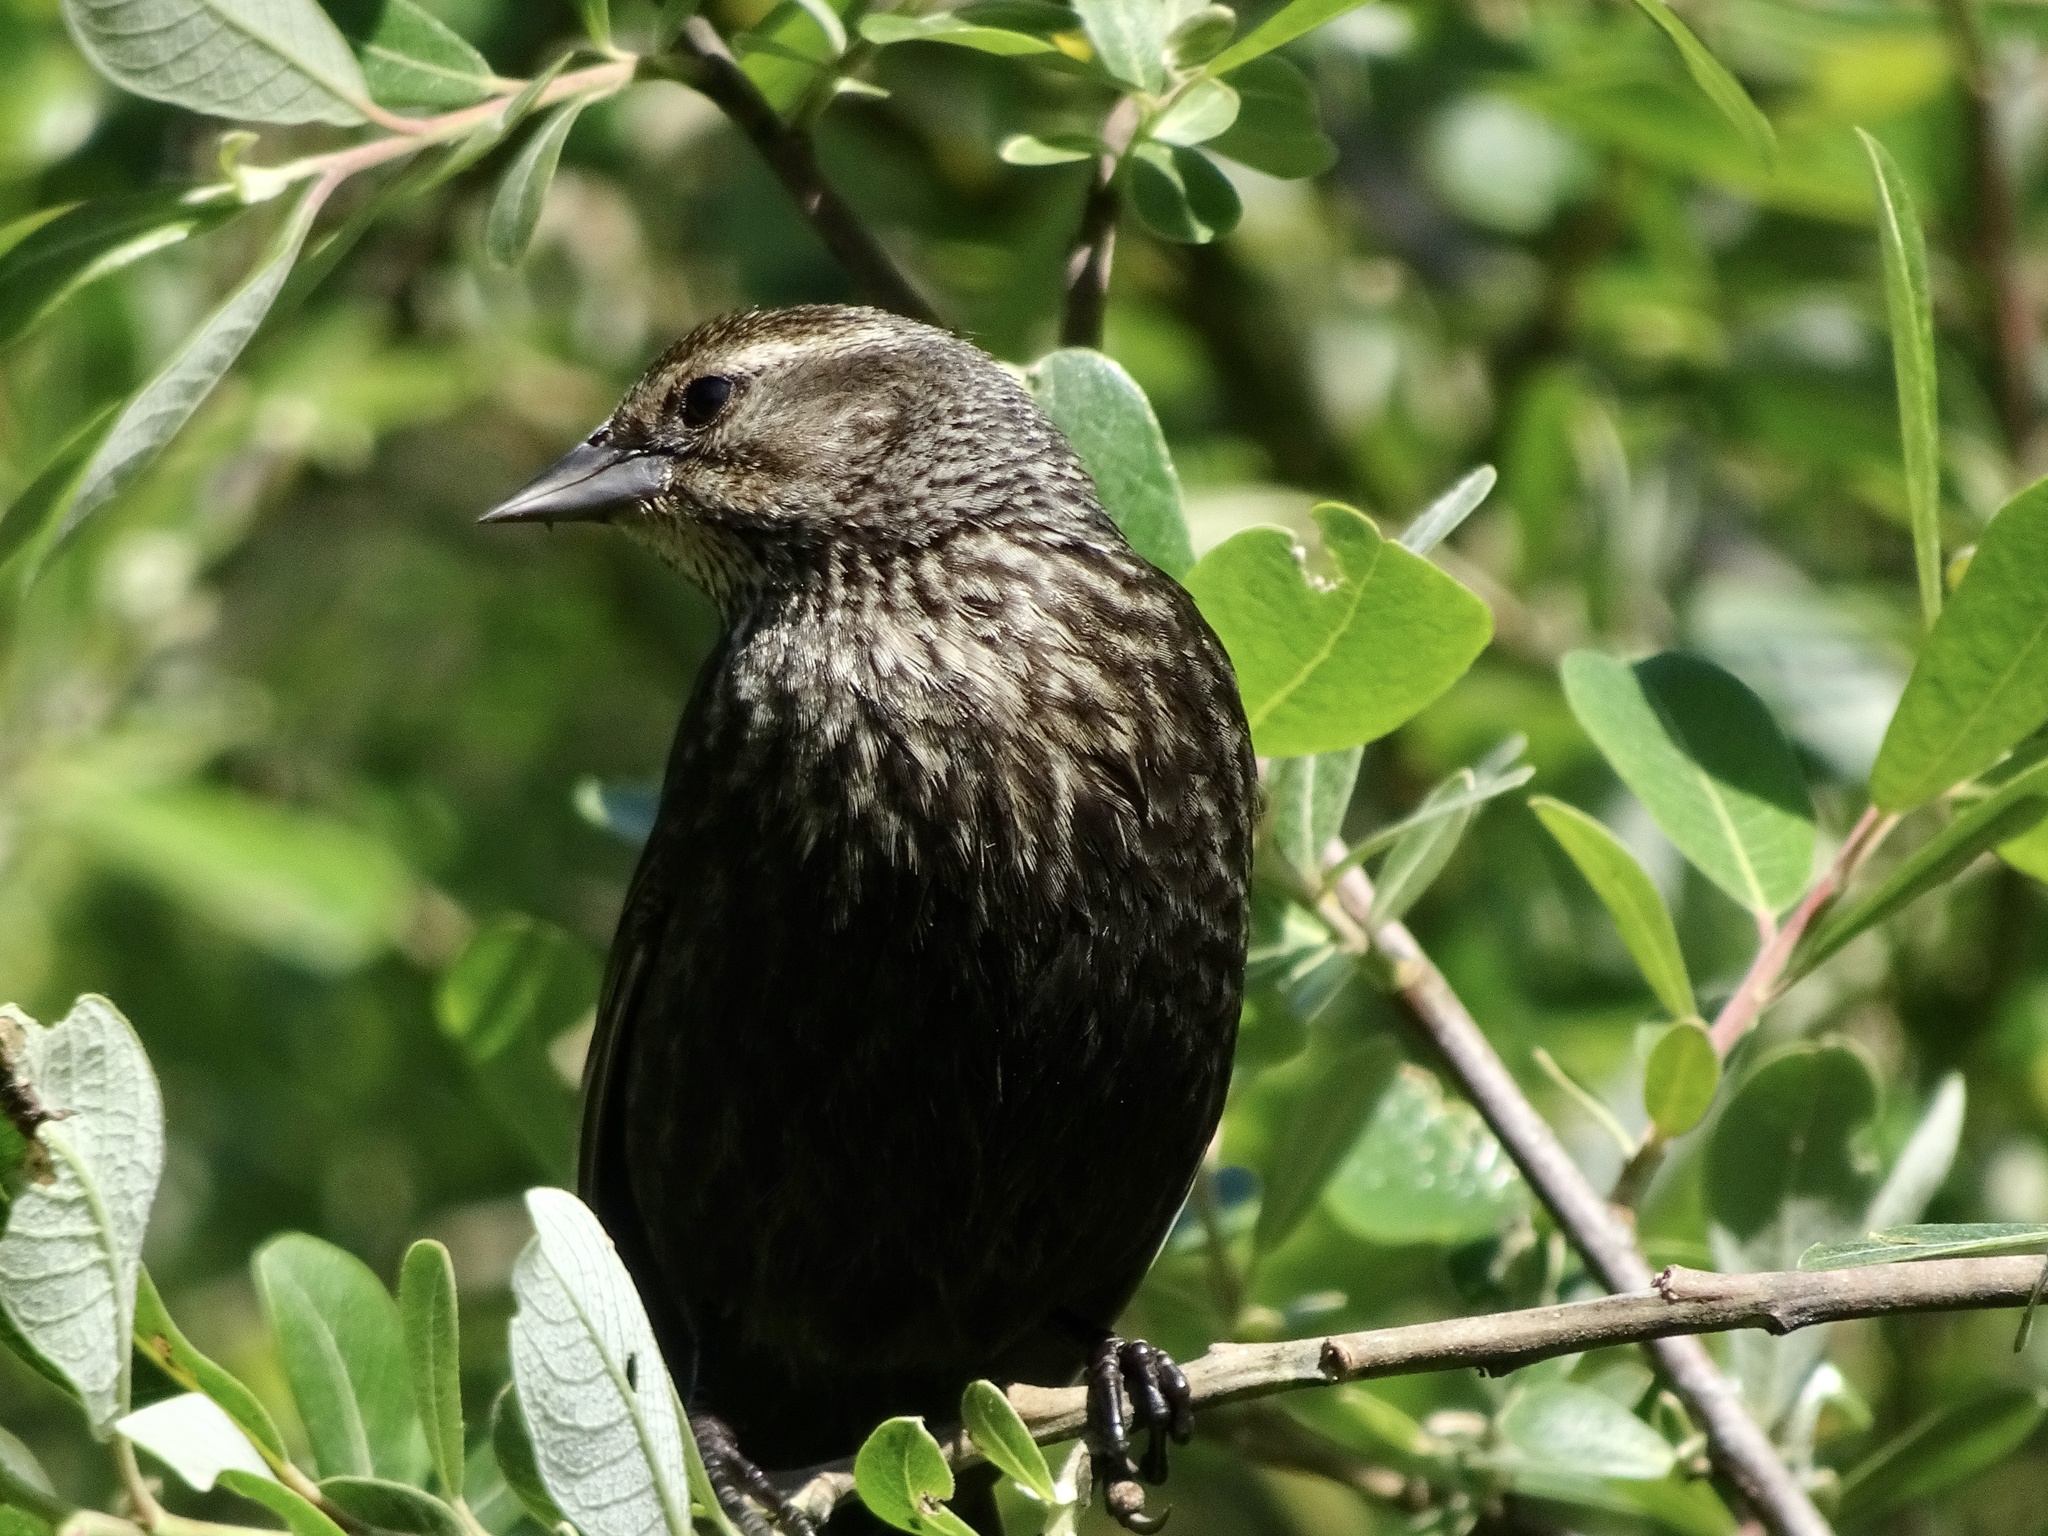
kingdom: Animalia
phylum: Chordata
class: Aves
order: Passeriformes
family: Icteridae
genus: Agelaius
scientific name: Agelaius phoeniceus
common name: Red-winged blackbird
